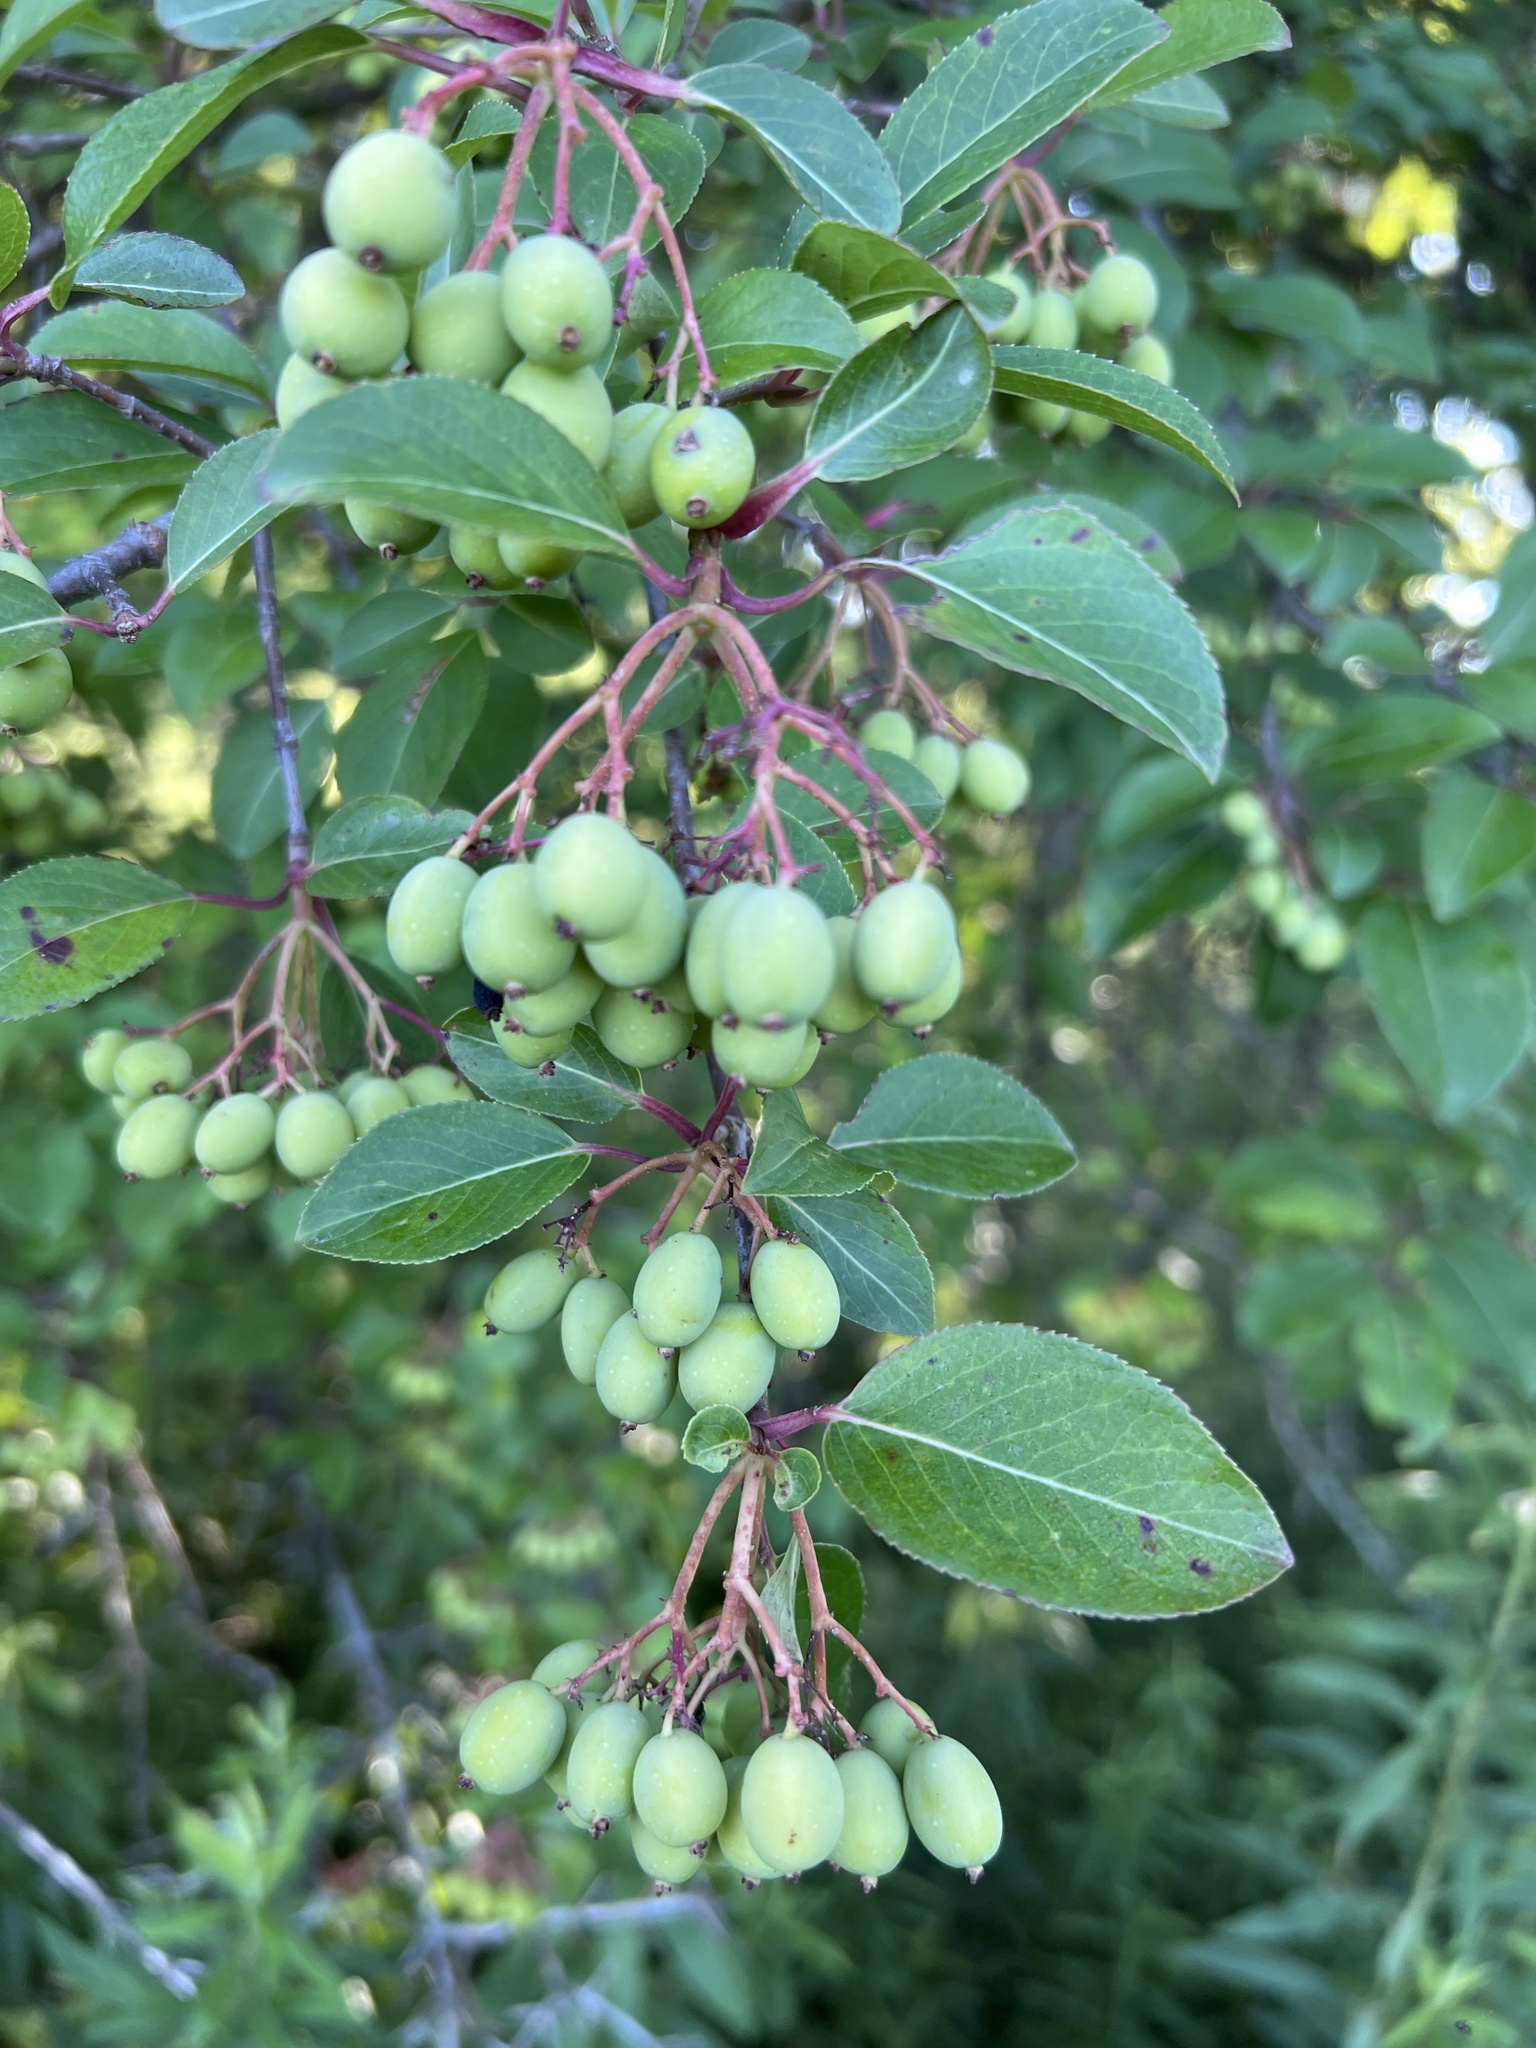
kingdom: Plantae
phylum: Tracheophyta
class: Magnoliopsida
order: Dipsacales
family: Viburnaceae
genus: Viburnum
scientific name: Viburnum prunifolium
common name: Black haw
